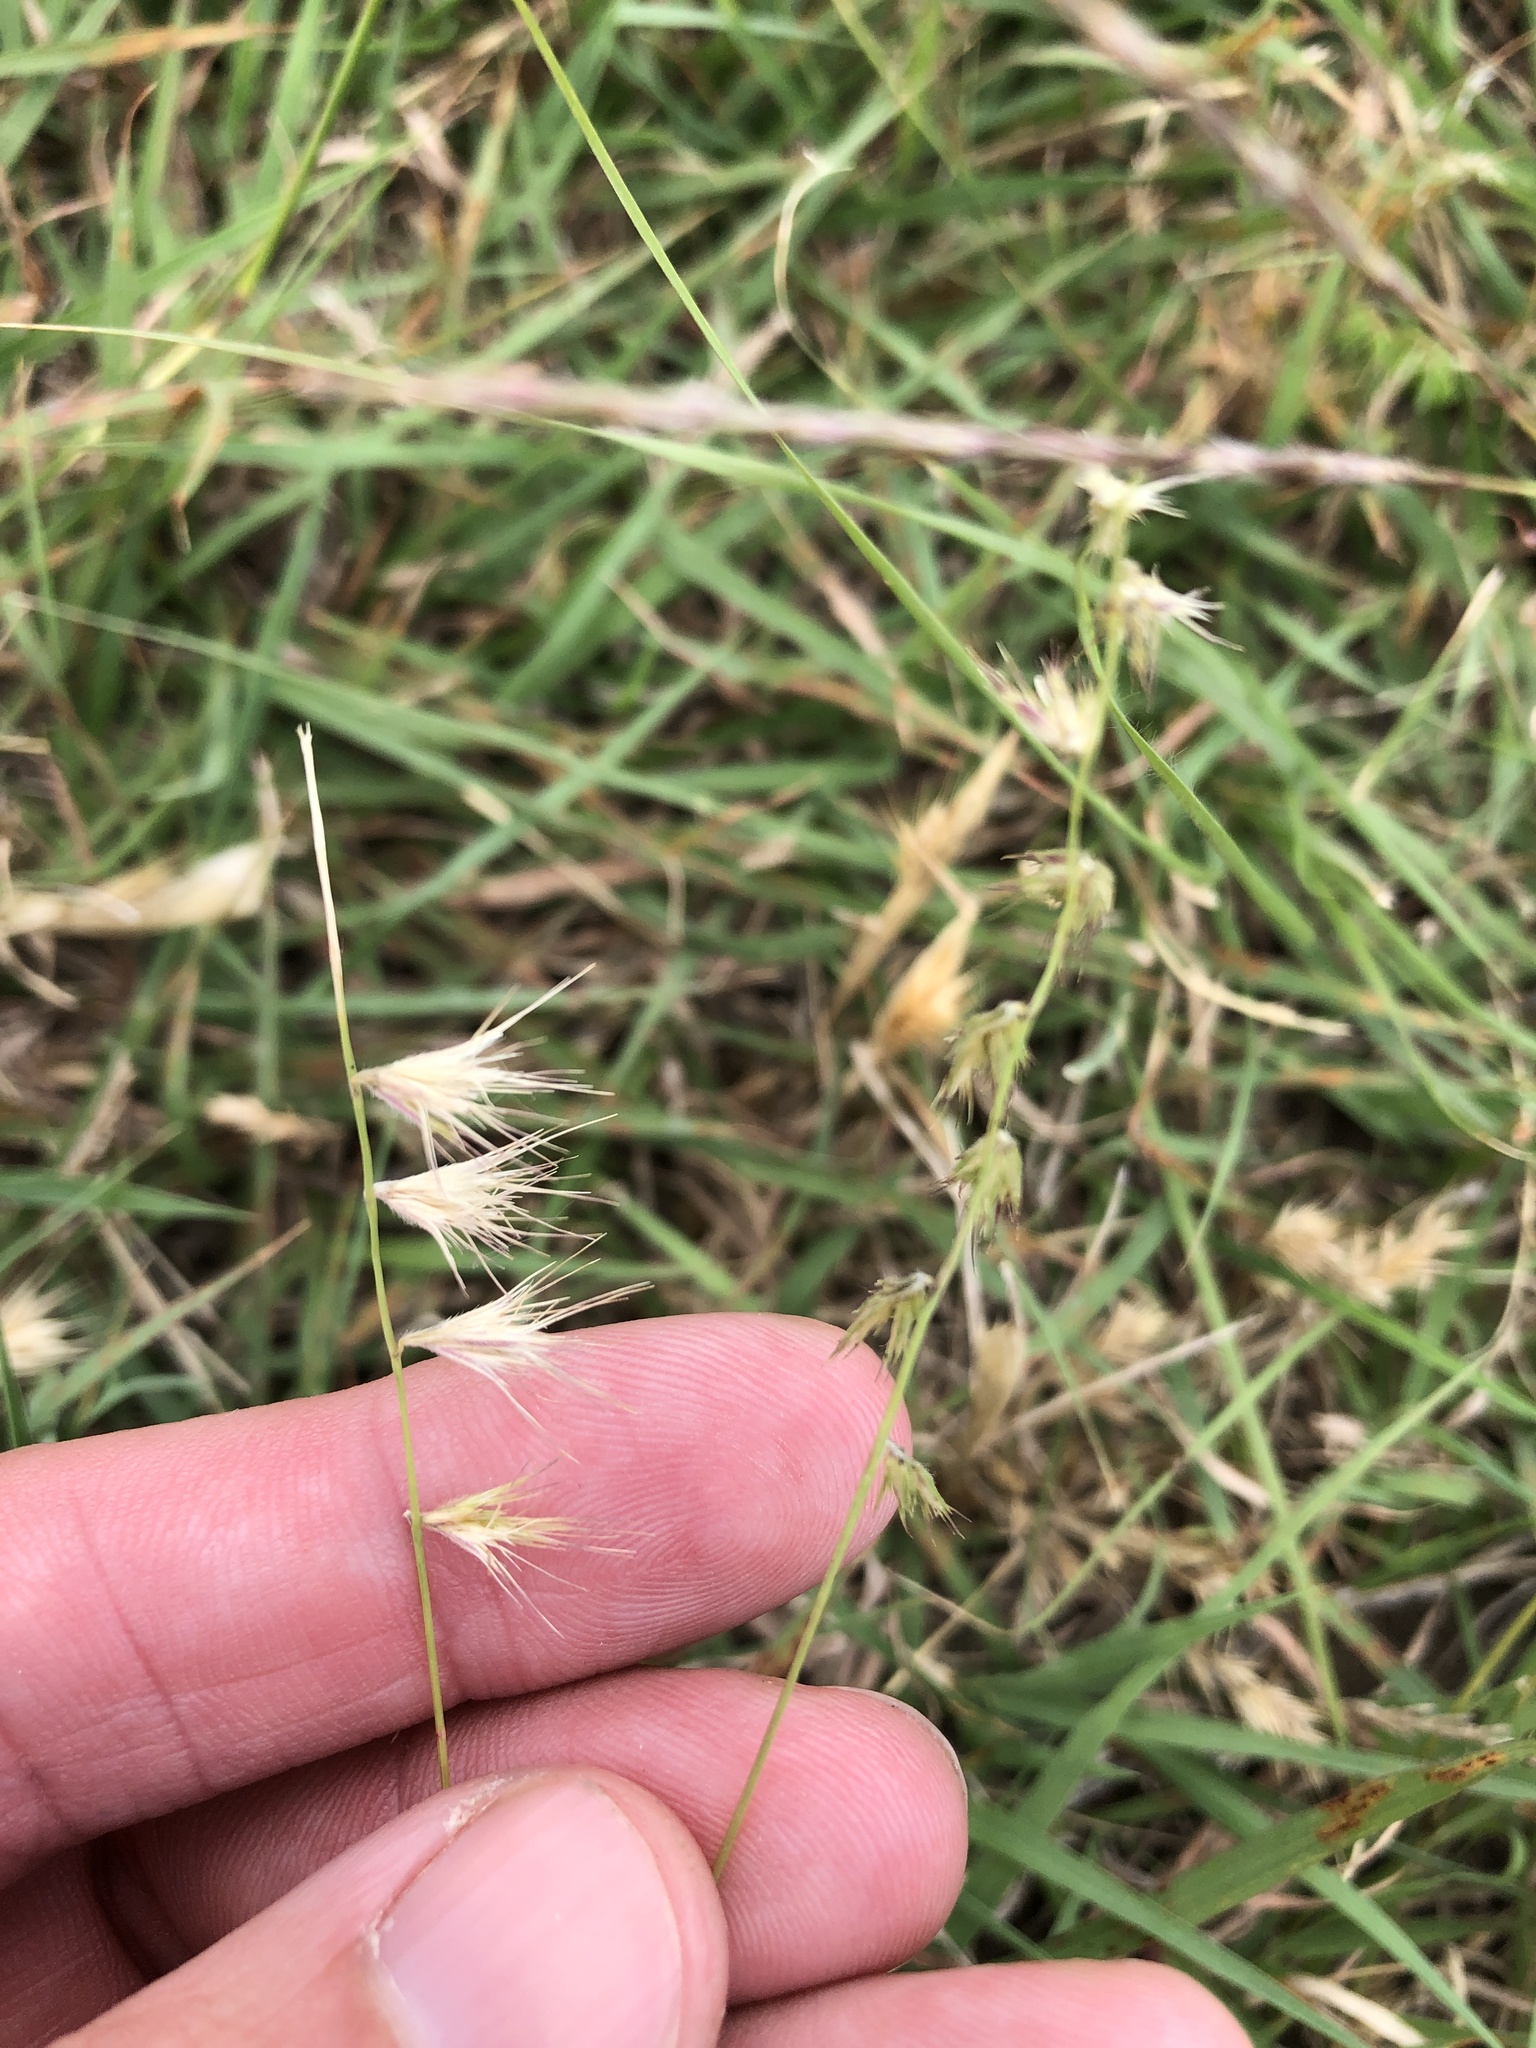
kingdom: Plantae
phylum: Tracheophyta
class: Liliopsida
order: Poales
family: Poaceae
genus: Bouteloua
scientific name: Bouteloua rigidiseta
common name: Texas grama
